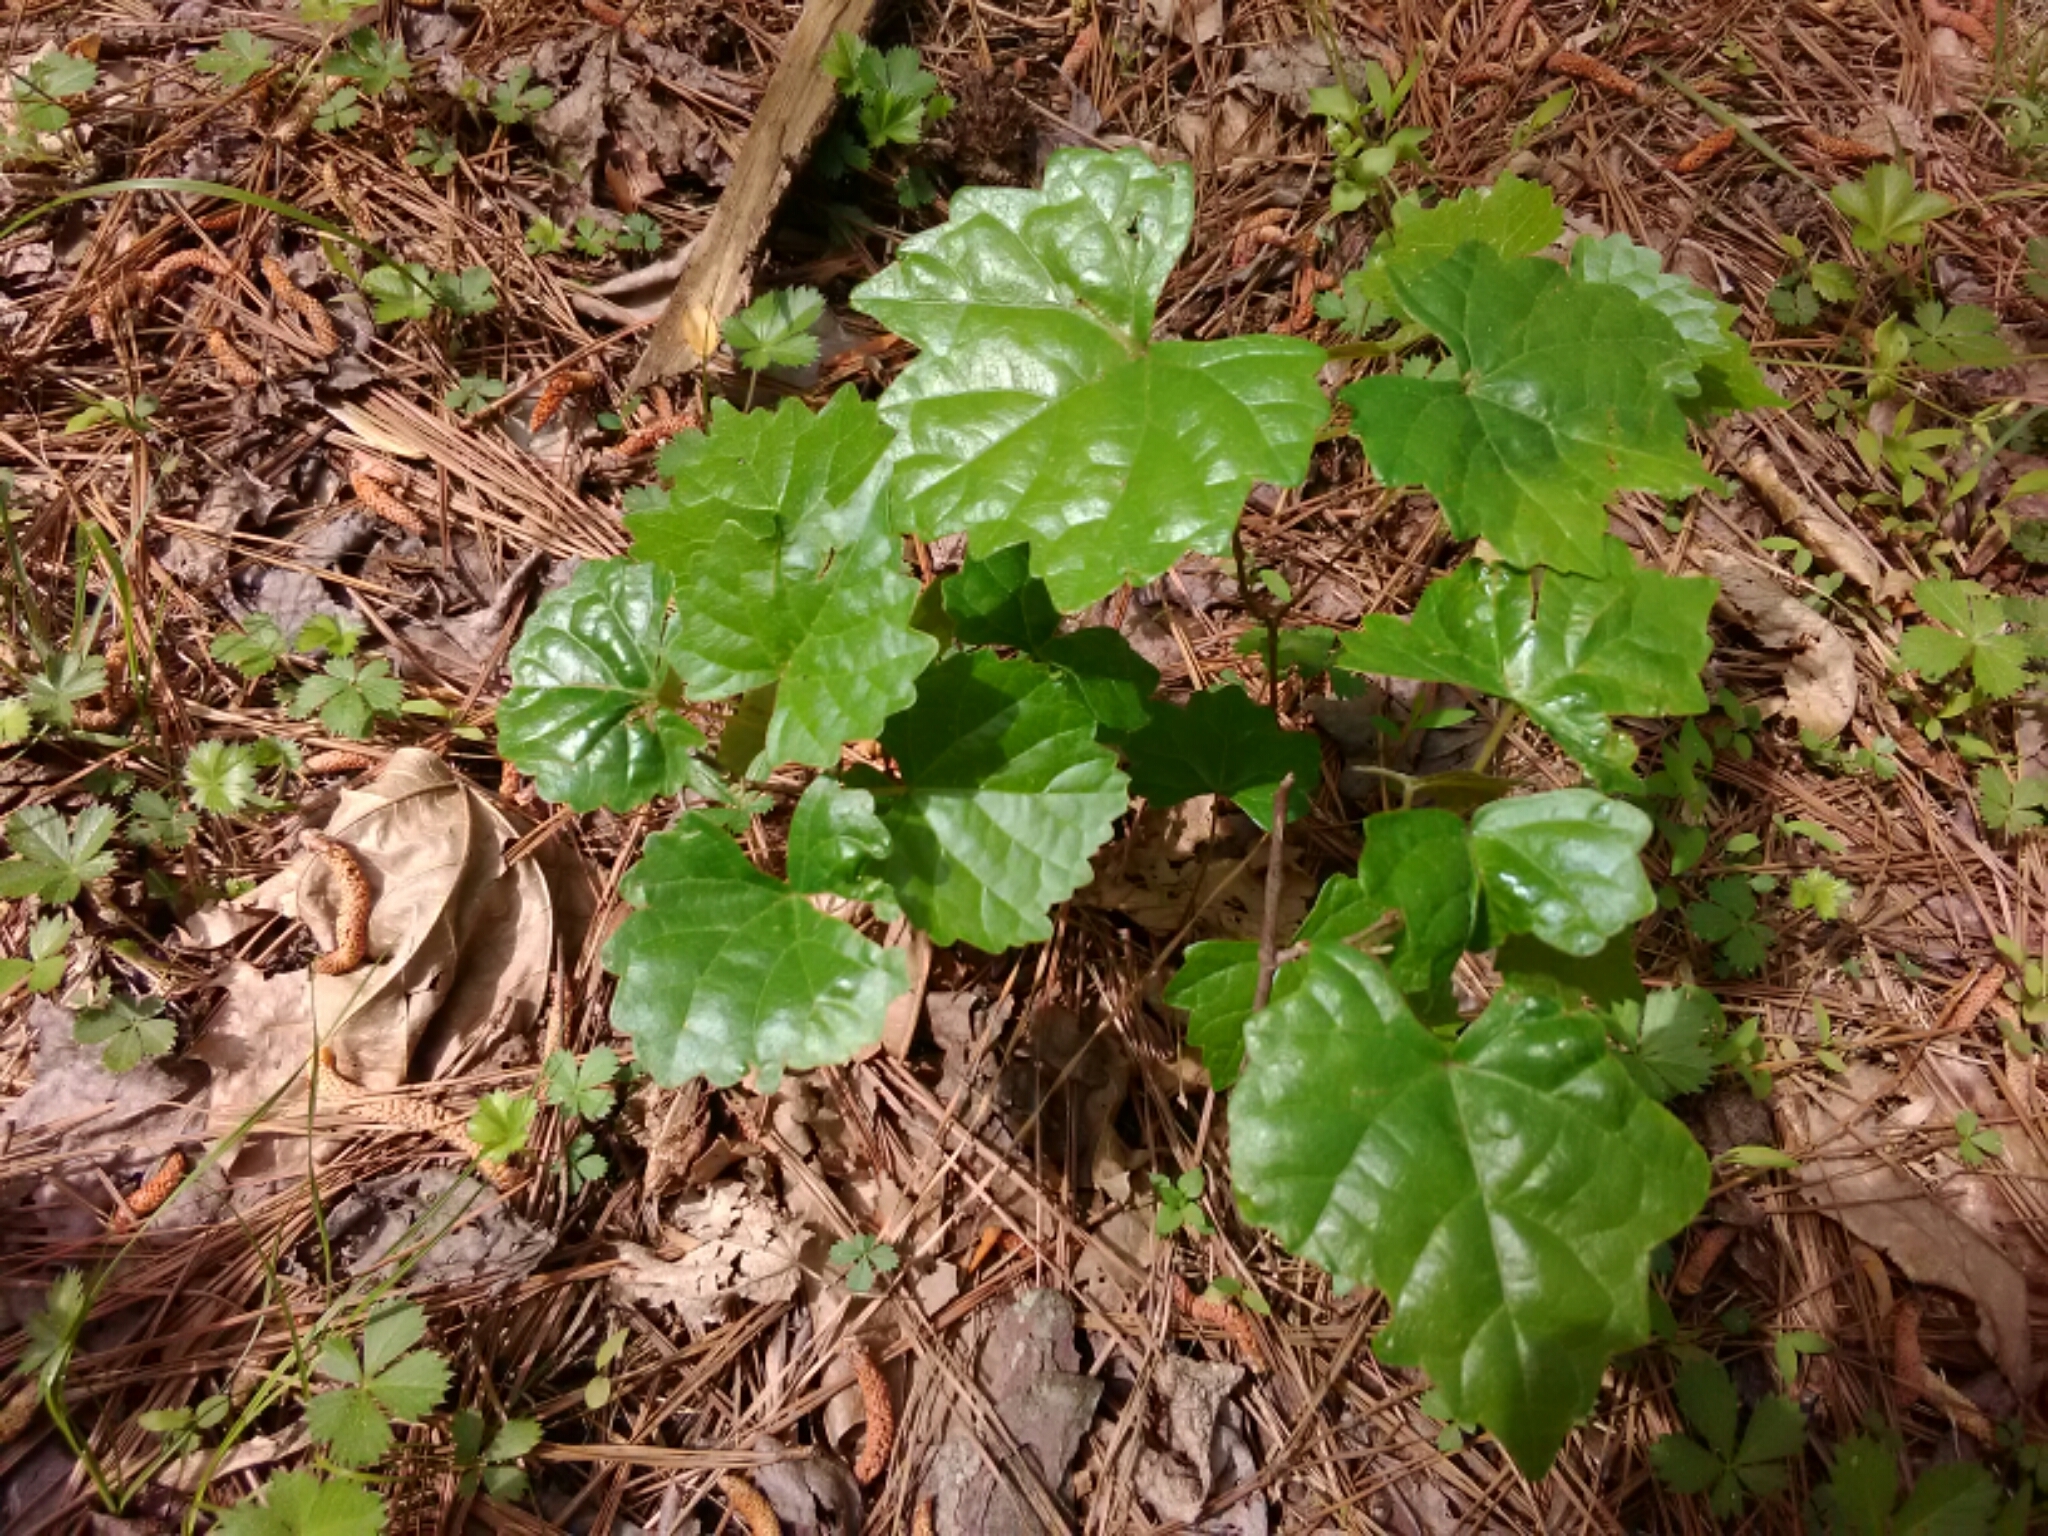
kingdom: Plantae
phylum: Tracheophyta
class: Magnoliopsida
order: Vitales
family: Vitaceae
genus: Vitis
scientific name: Vitis rotundifolia
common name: Muscadine grape
